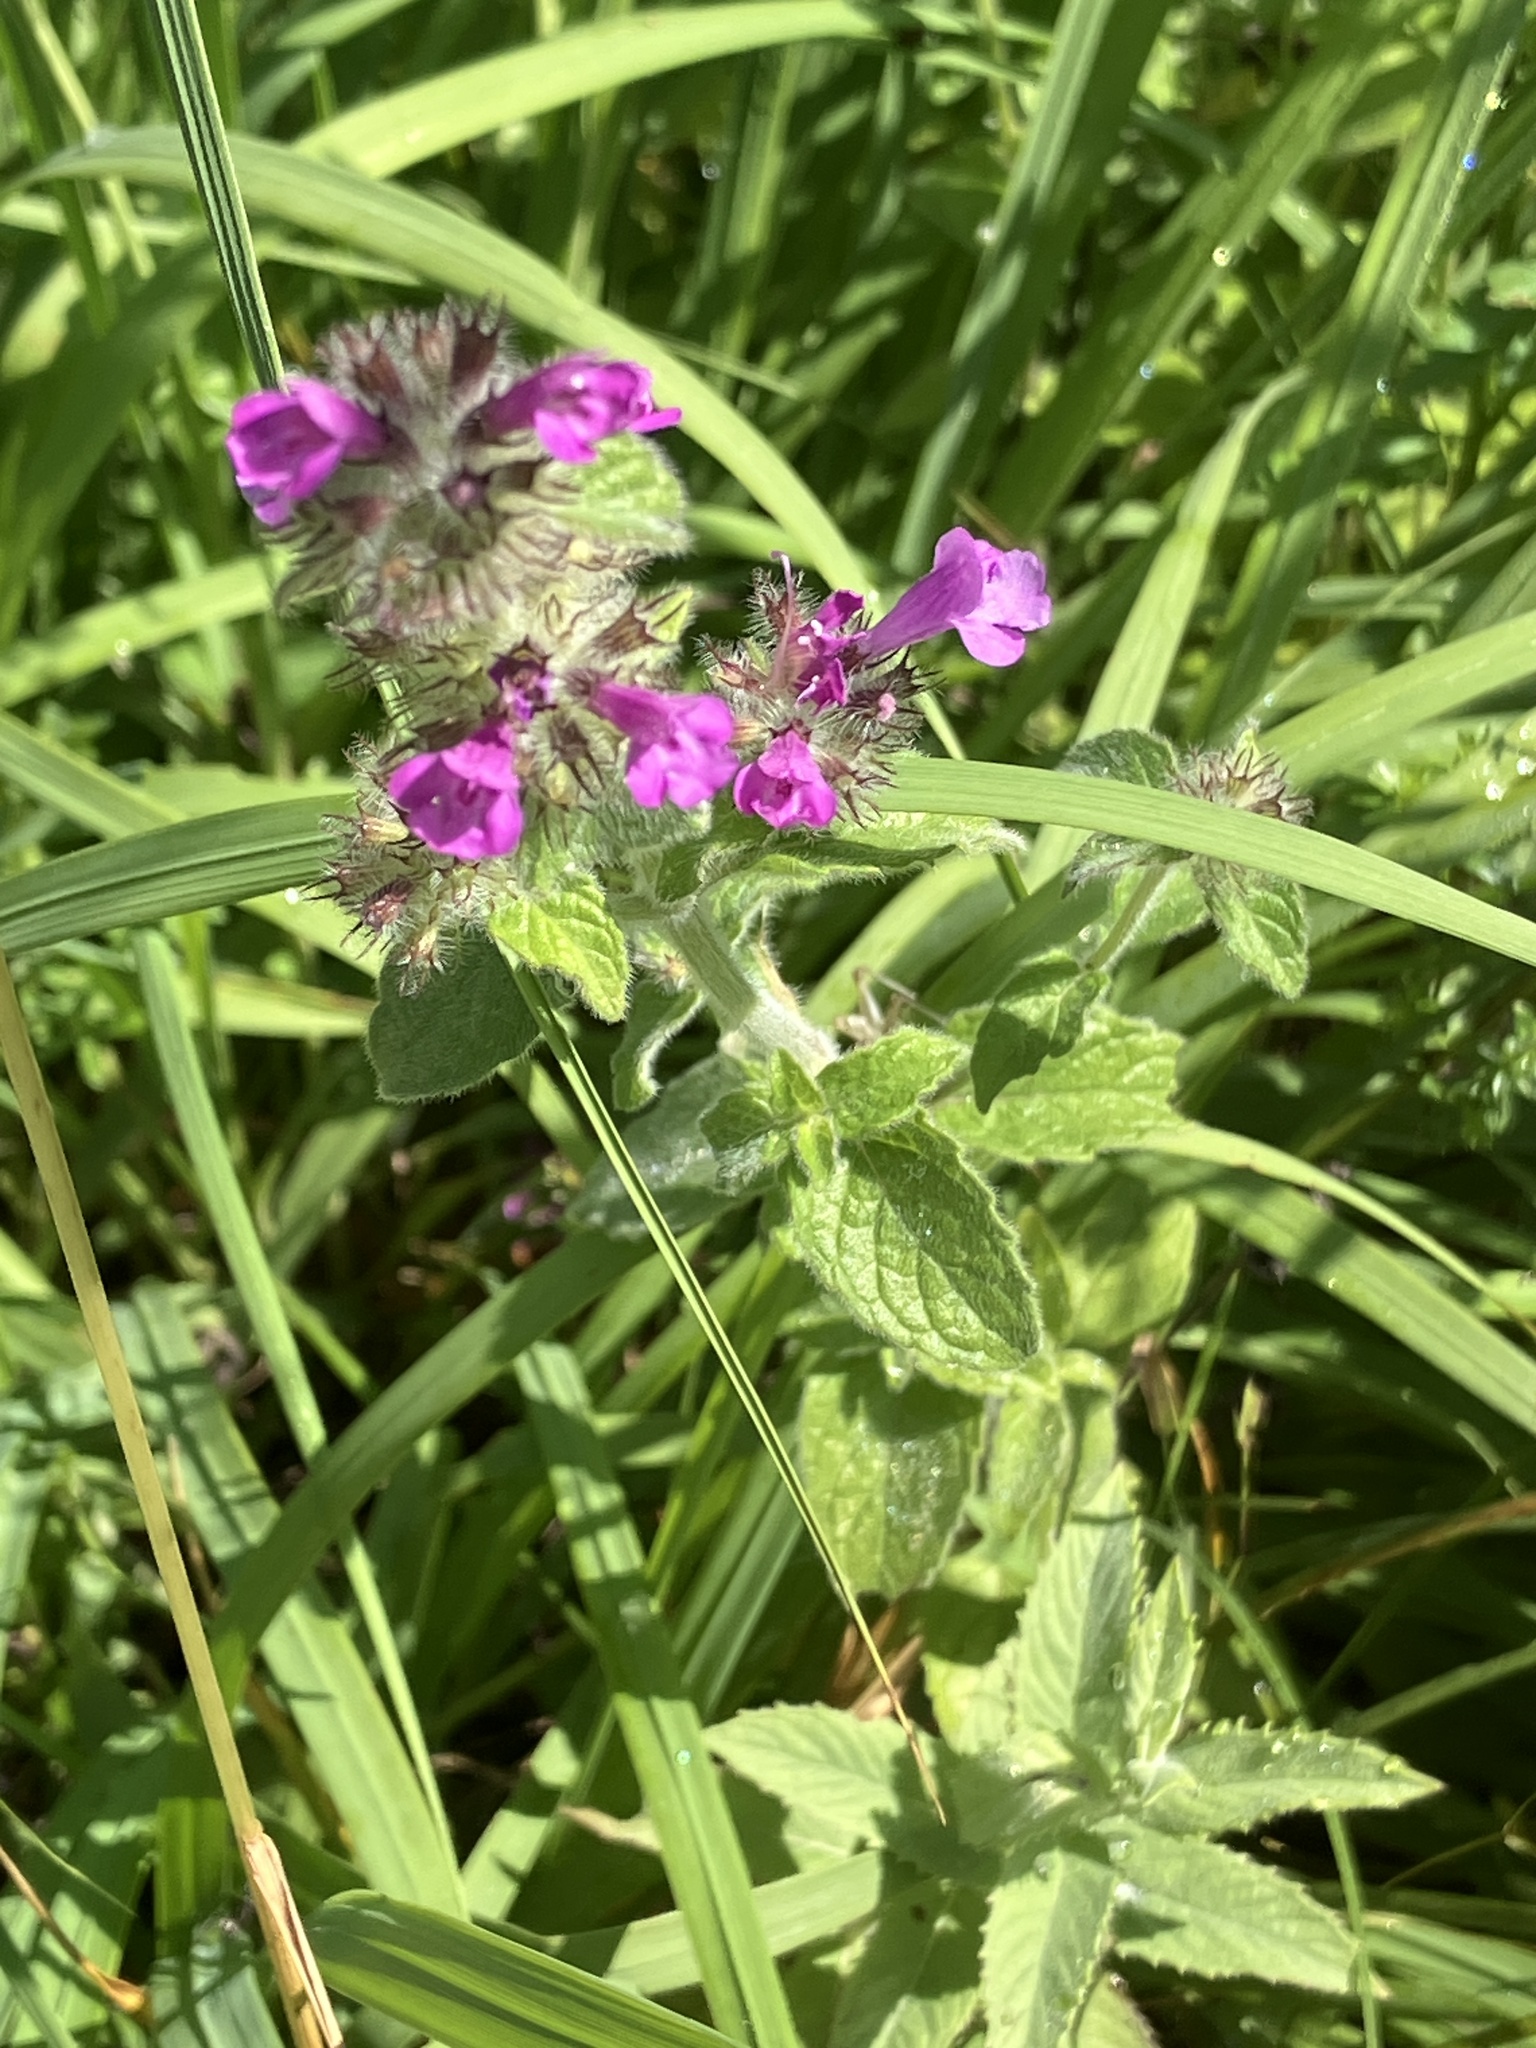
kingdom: Plantae
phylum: Tracheophyta
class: Magnoliopsida
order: Lamiales
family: Lamiaceae
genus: Clinopodium
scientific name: Clinopodium vulgare
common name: Wild basil
